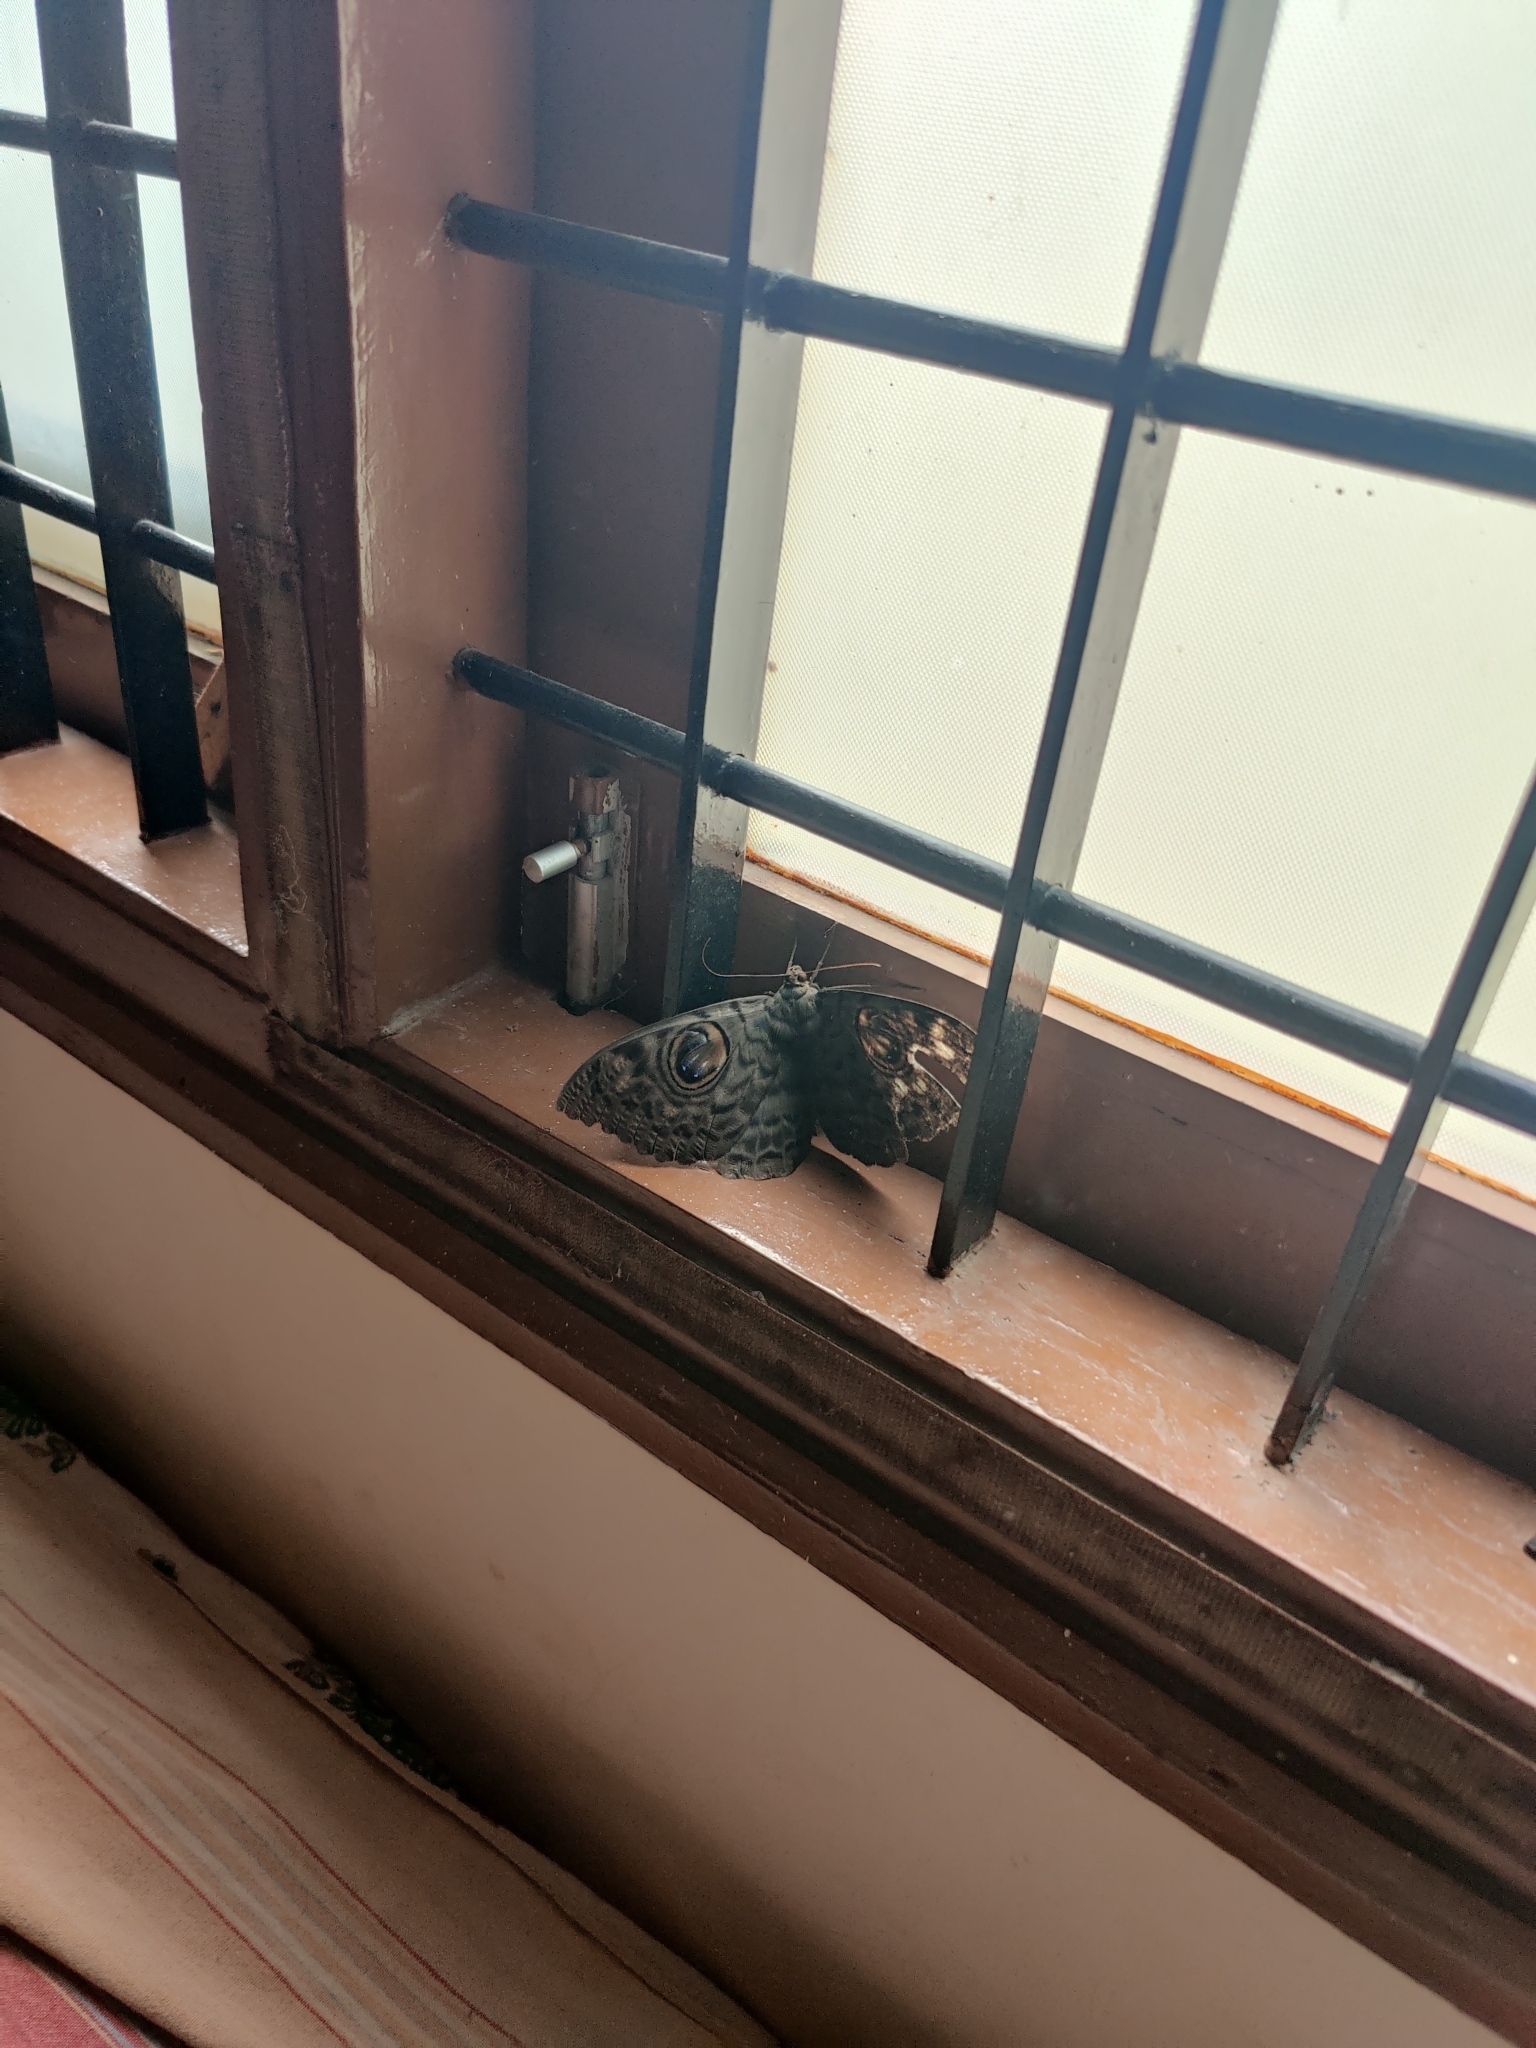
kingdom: Animalia
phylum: Arthropoda
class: Insecta
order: Lepidoptera
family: Erebidae
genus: Erebus
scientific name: Erebus macrops
